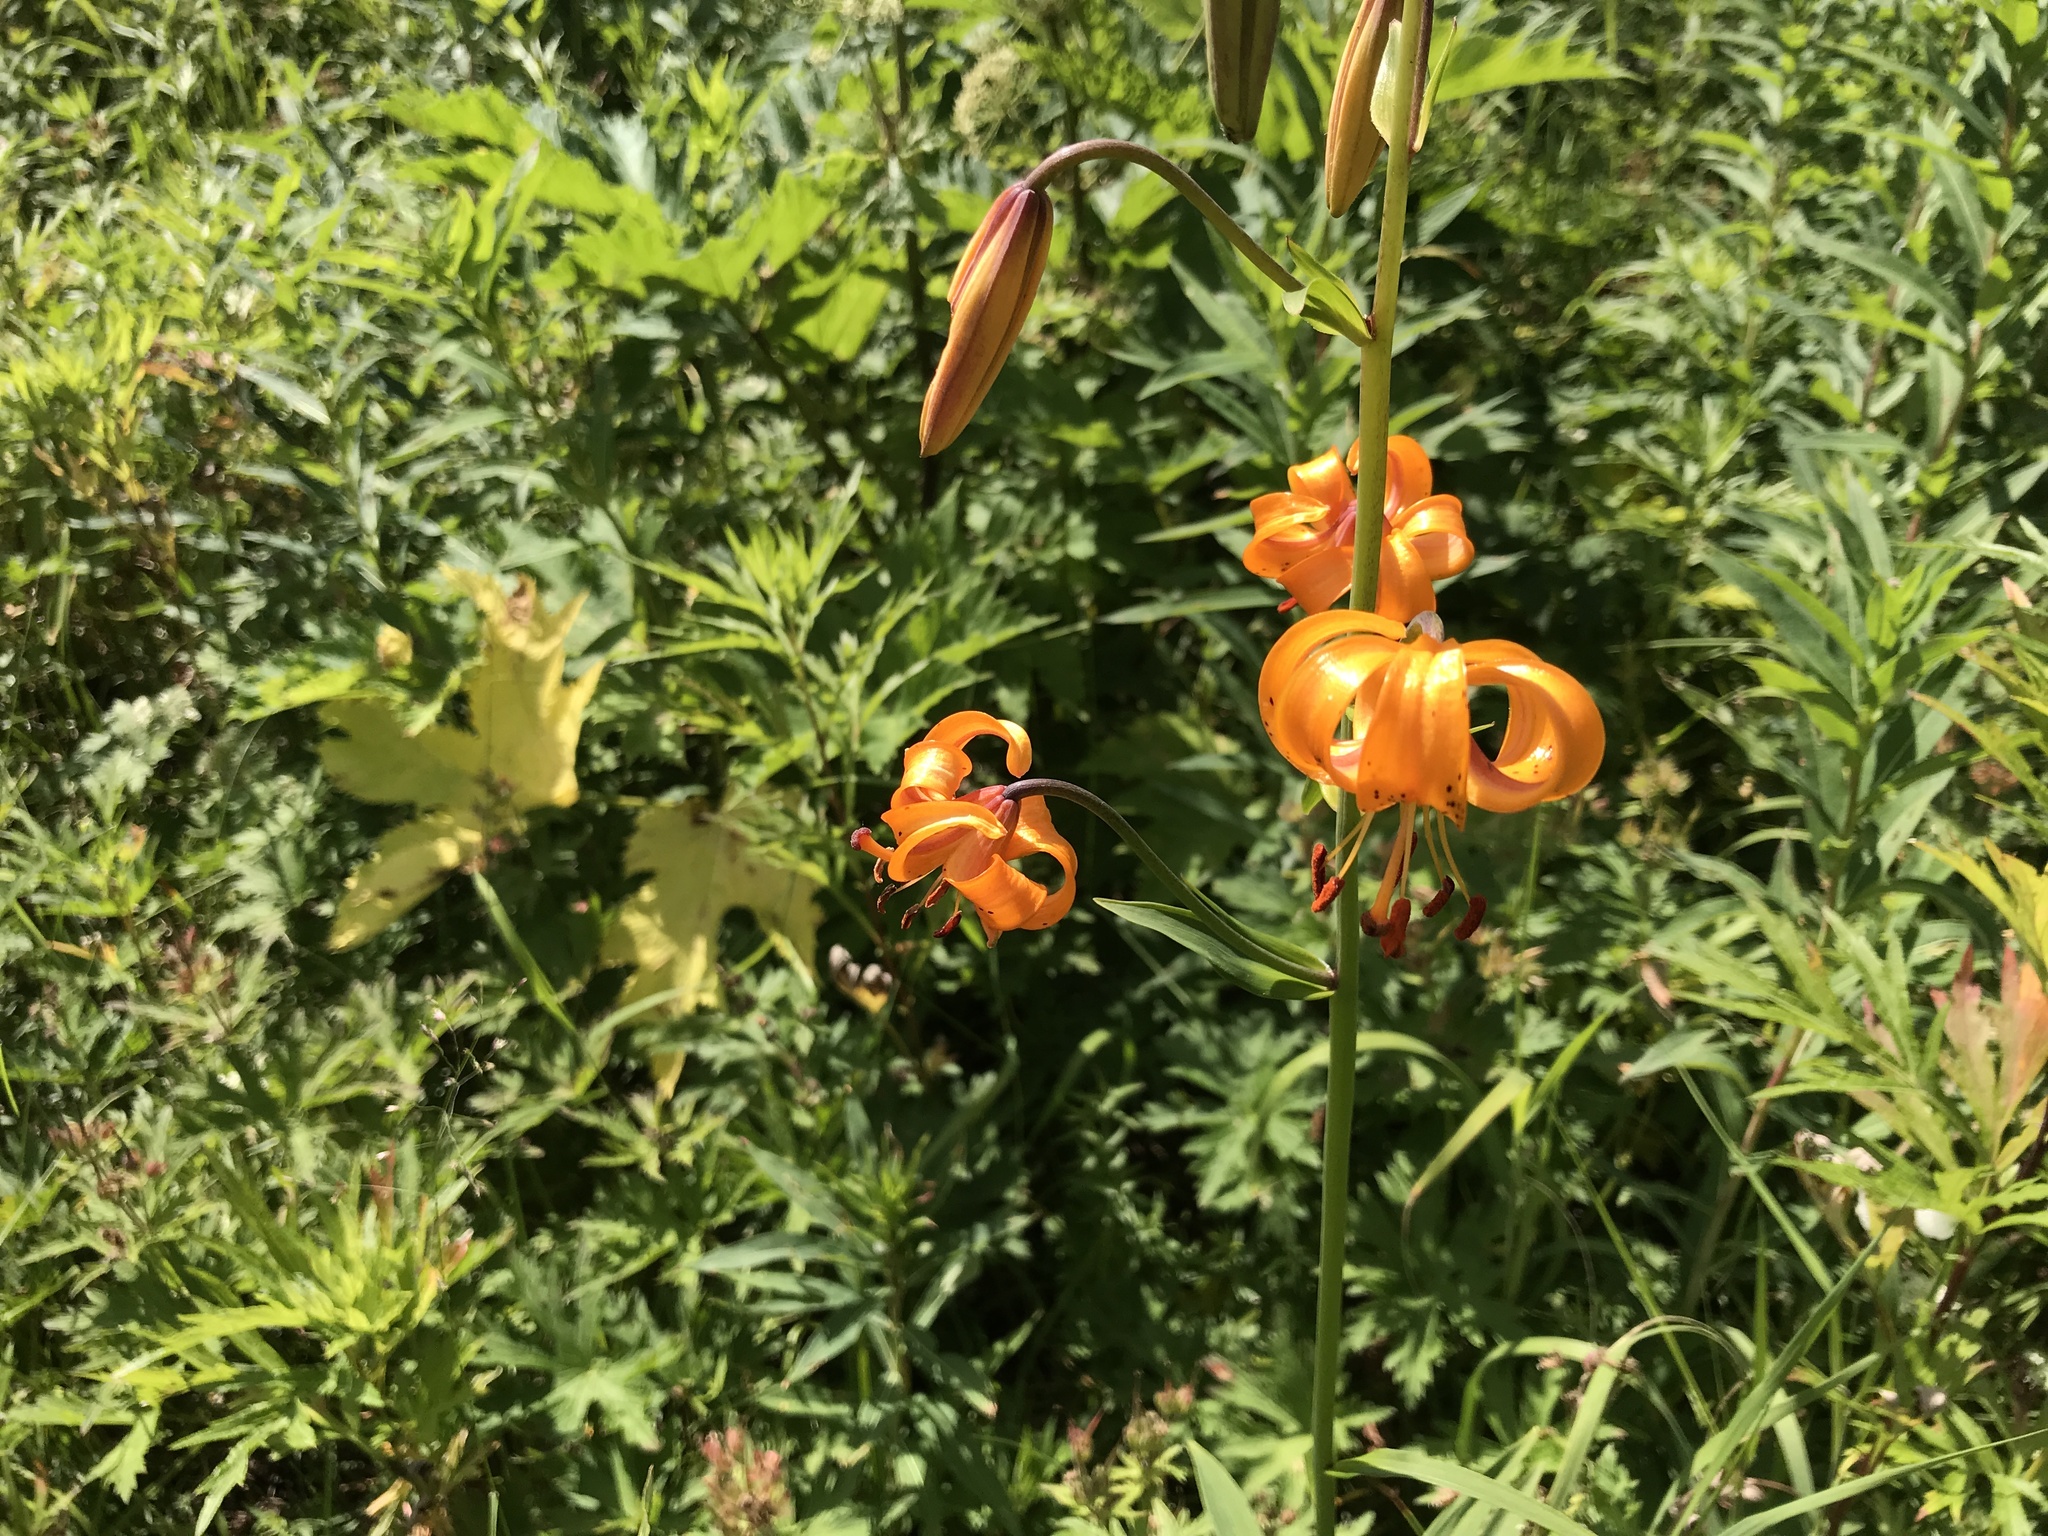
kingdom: Plantae
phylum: Tracheophyta
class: Liliopsida
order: Liliales
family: Liliaceae
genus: Lilium
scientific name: Lilium debile
